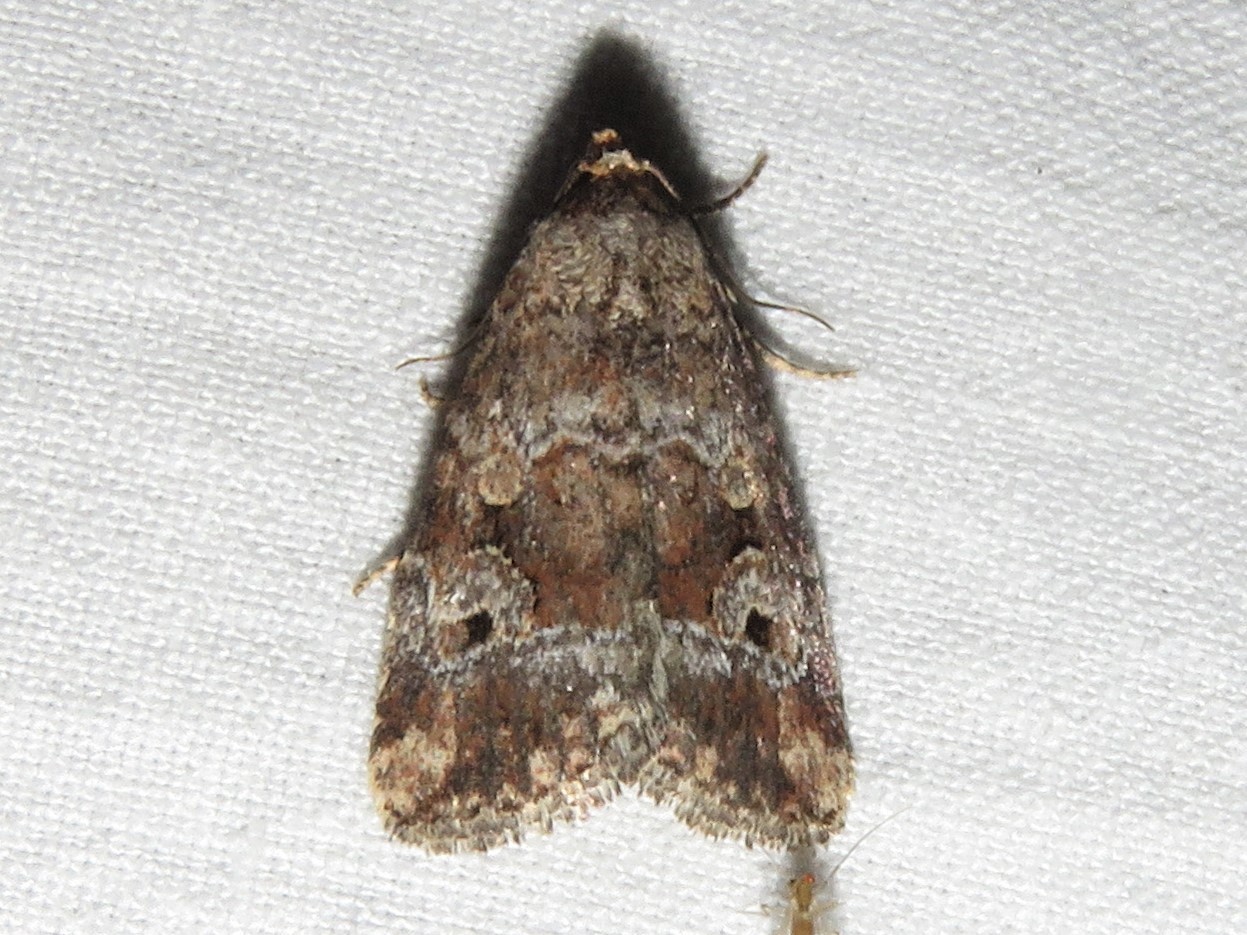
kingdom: Animalia
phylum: Arthropoda
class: Insecta
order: Lepidoptera
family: Noctuidae
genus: Elaphria
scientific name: Elaphria alapallida
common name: Pale-winged midget
